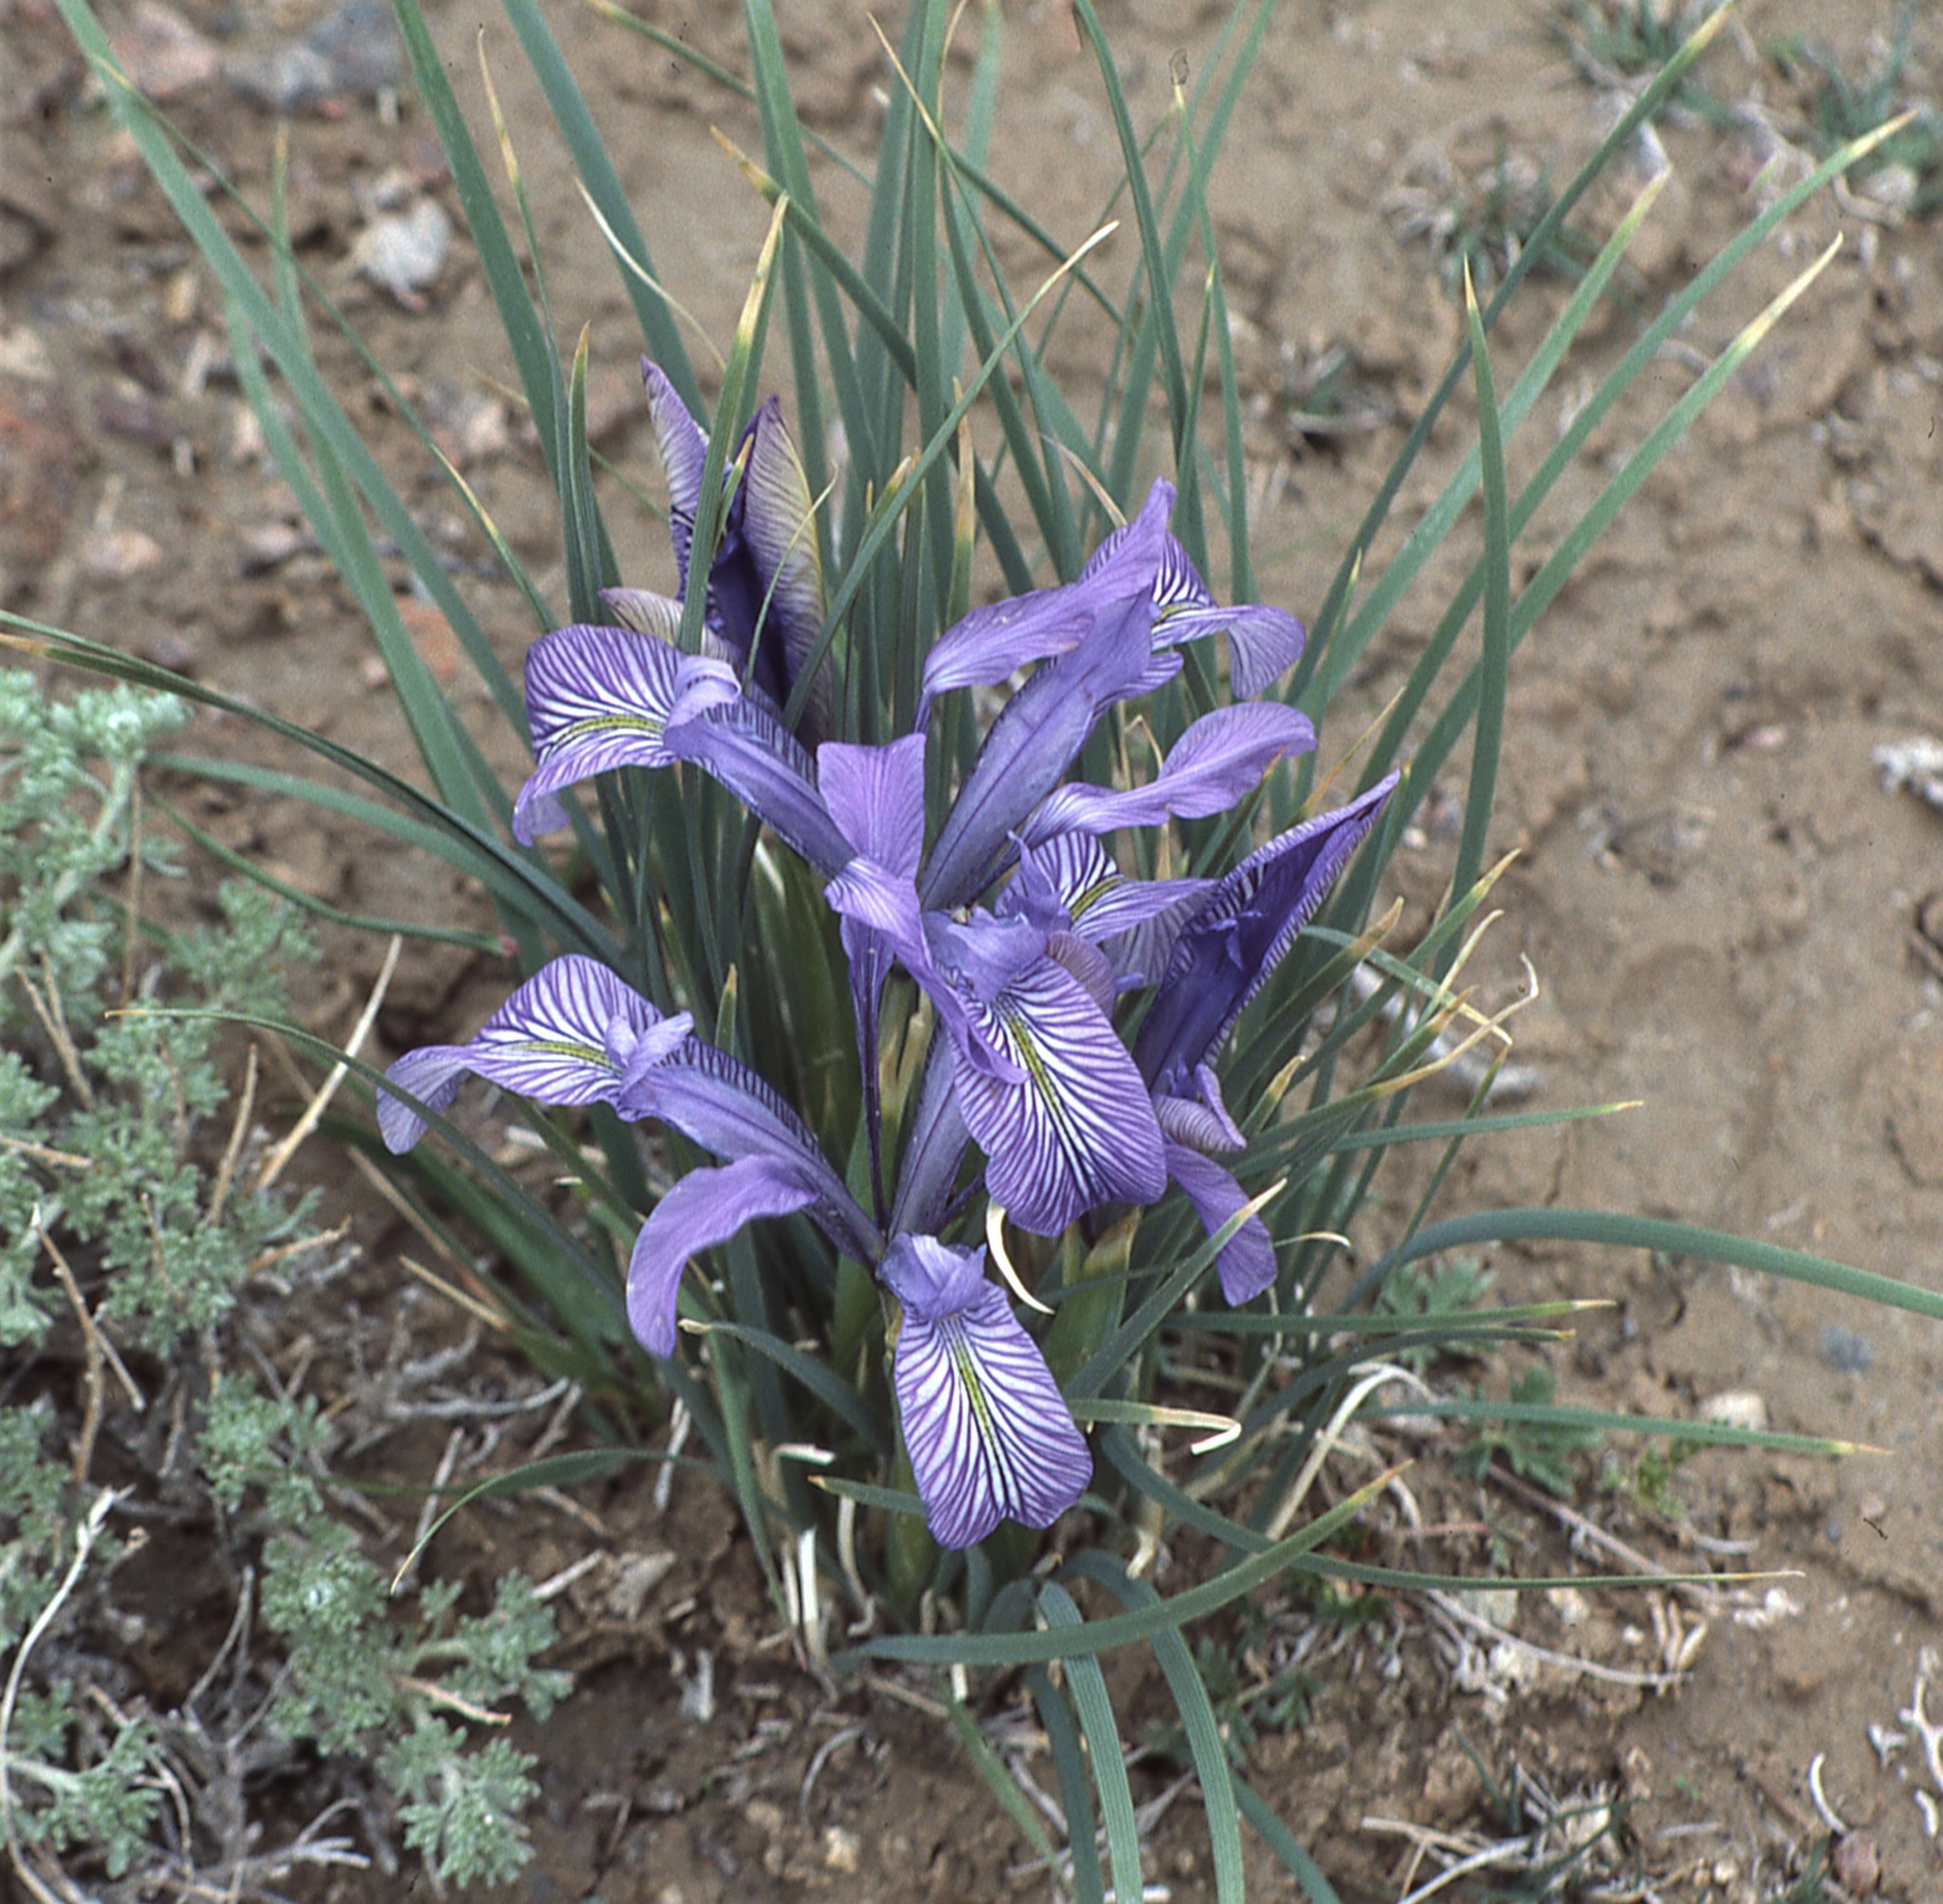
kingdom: Plantae
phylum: Tracheophyta
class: Liliopsida
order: Asparagales
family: Iridaceae
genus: Iris
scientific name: Iris loczyi
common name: Tian shan mountain iris
